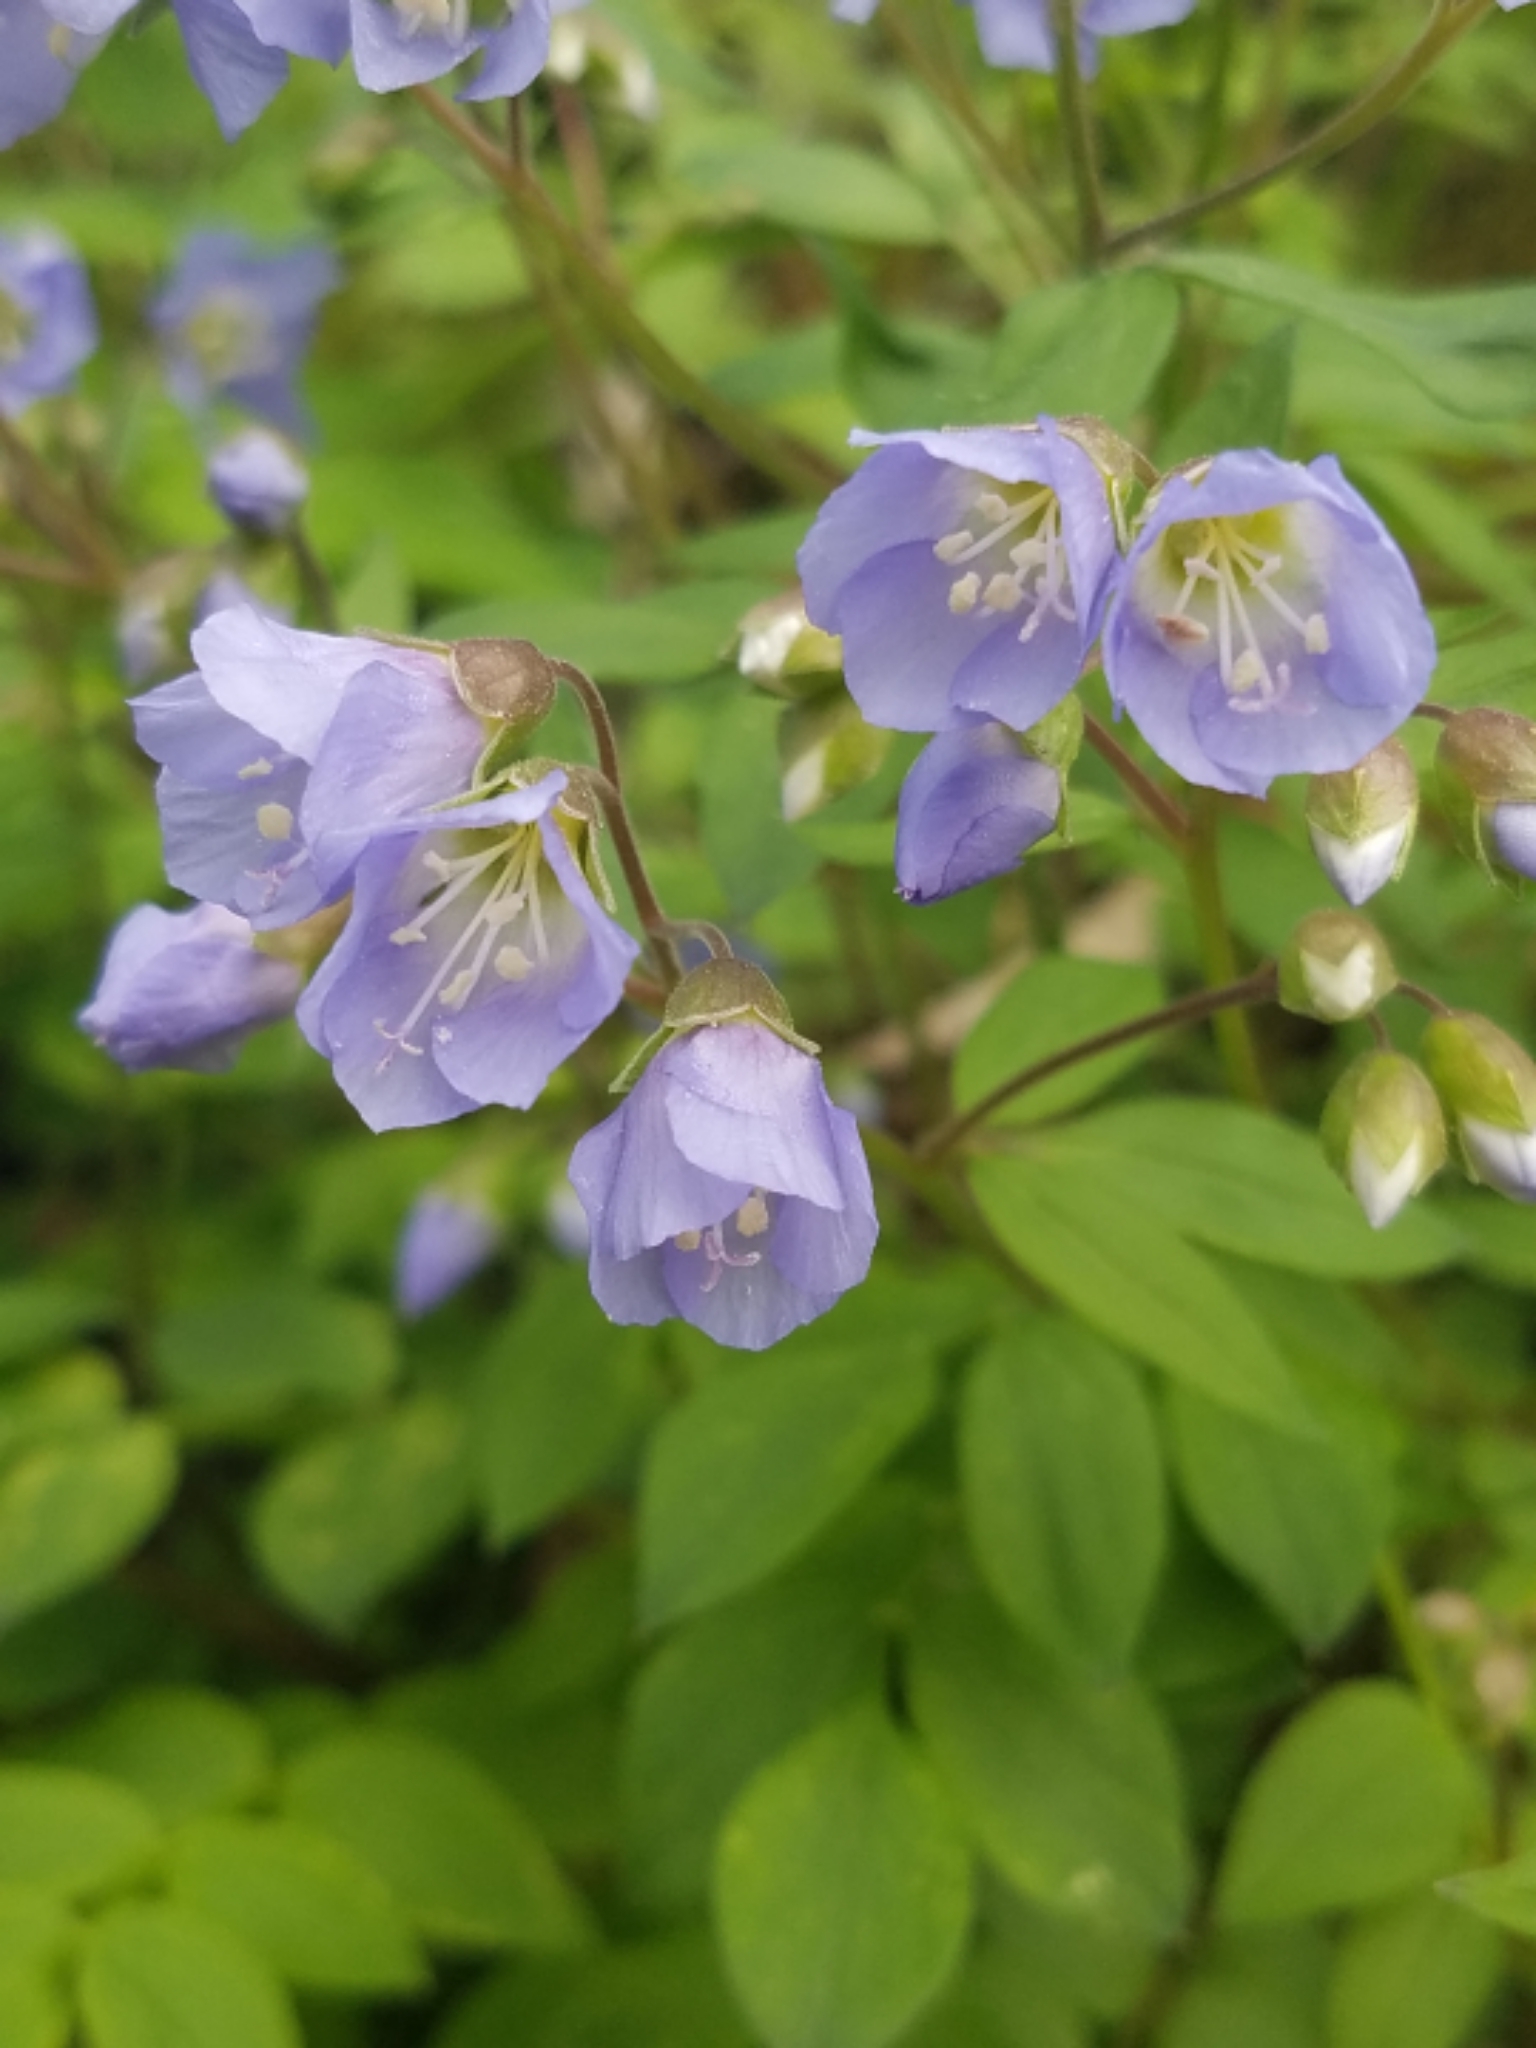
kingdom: Plantae
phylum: Tracheophyta
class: Magnoliopsida
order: Ericales
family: Polemoniaceae
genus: Polemonium
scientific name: Polemonium reptans
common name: Creeping jacob's-ladder
